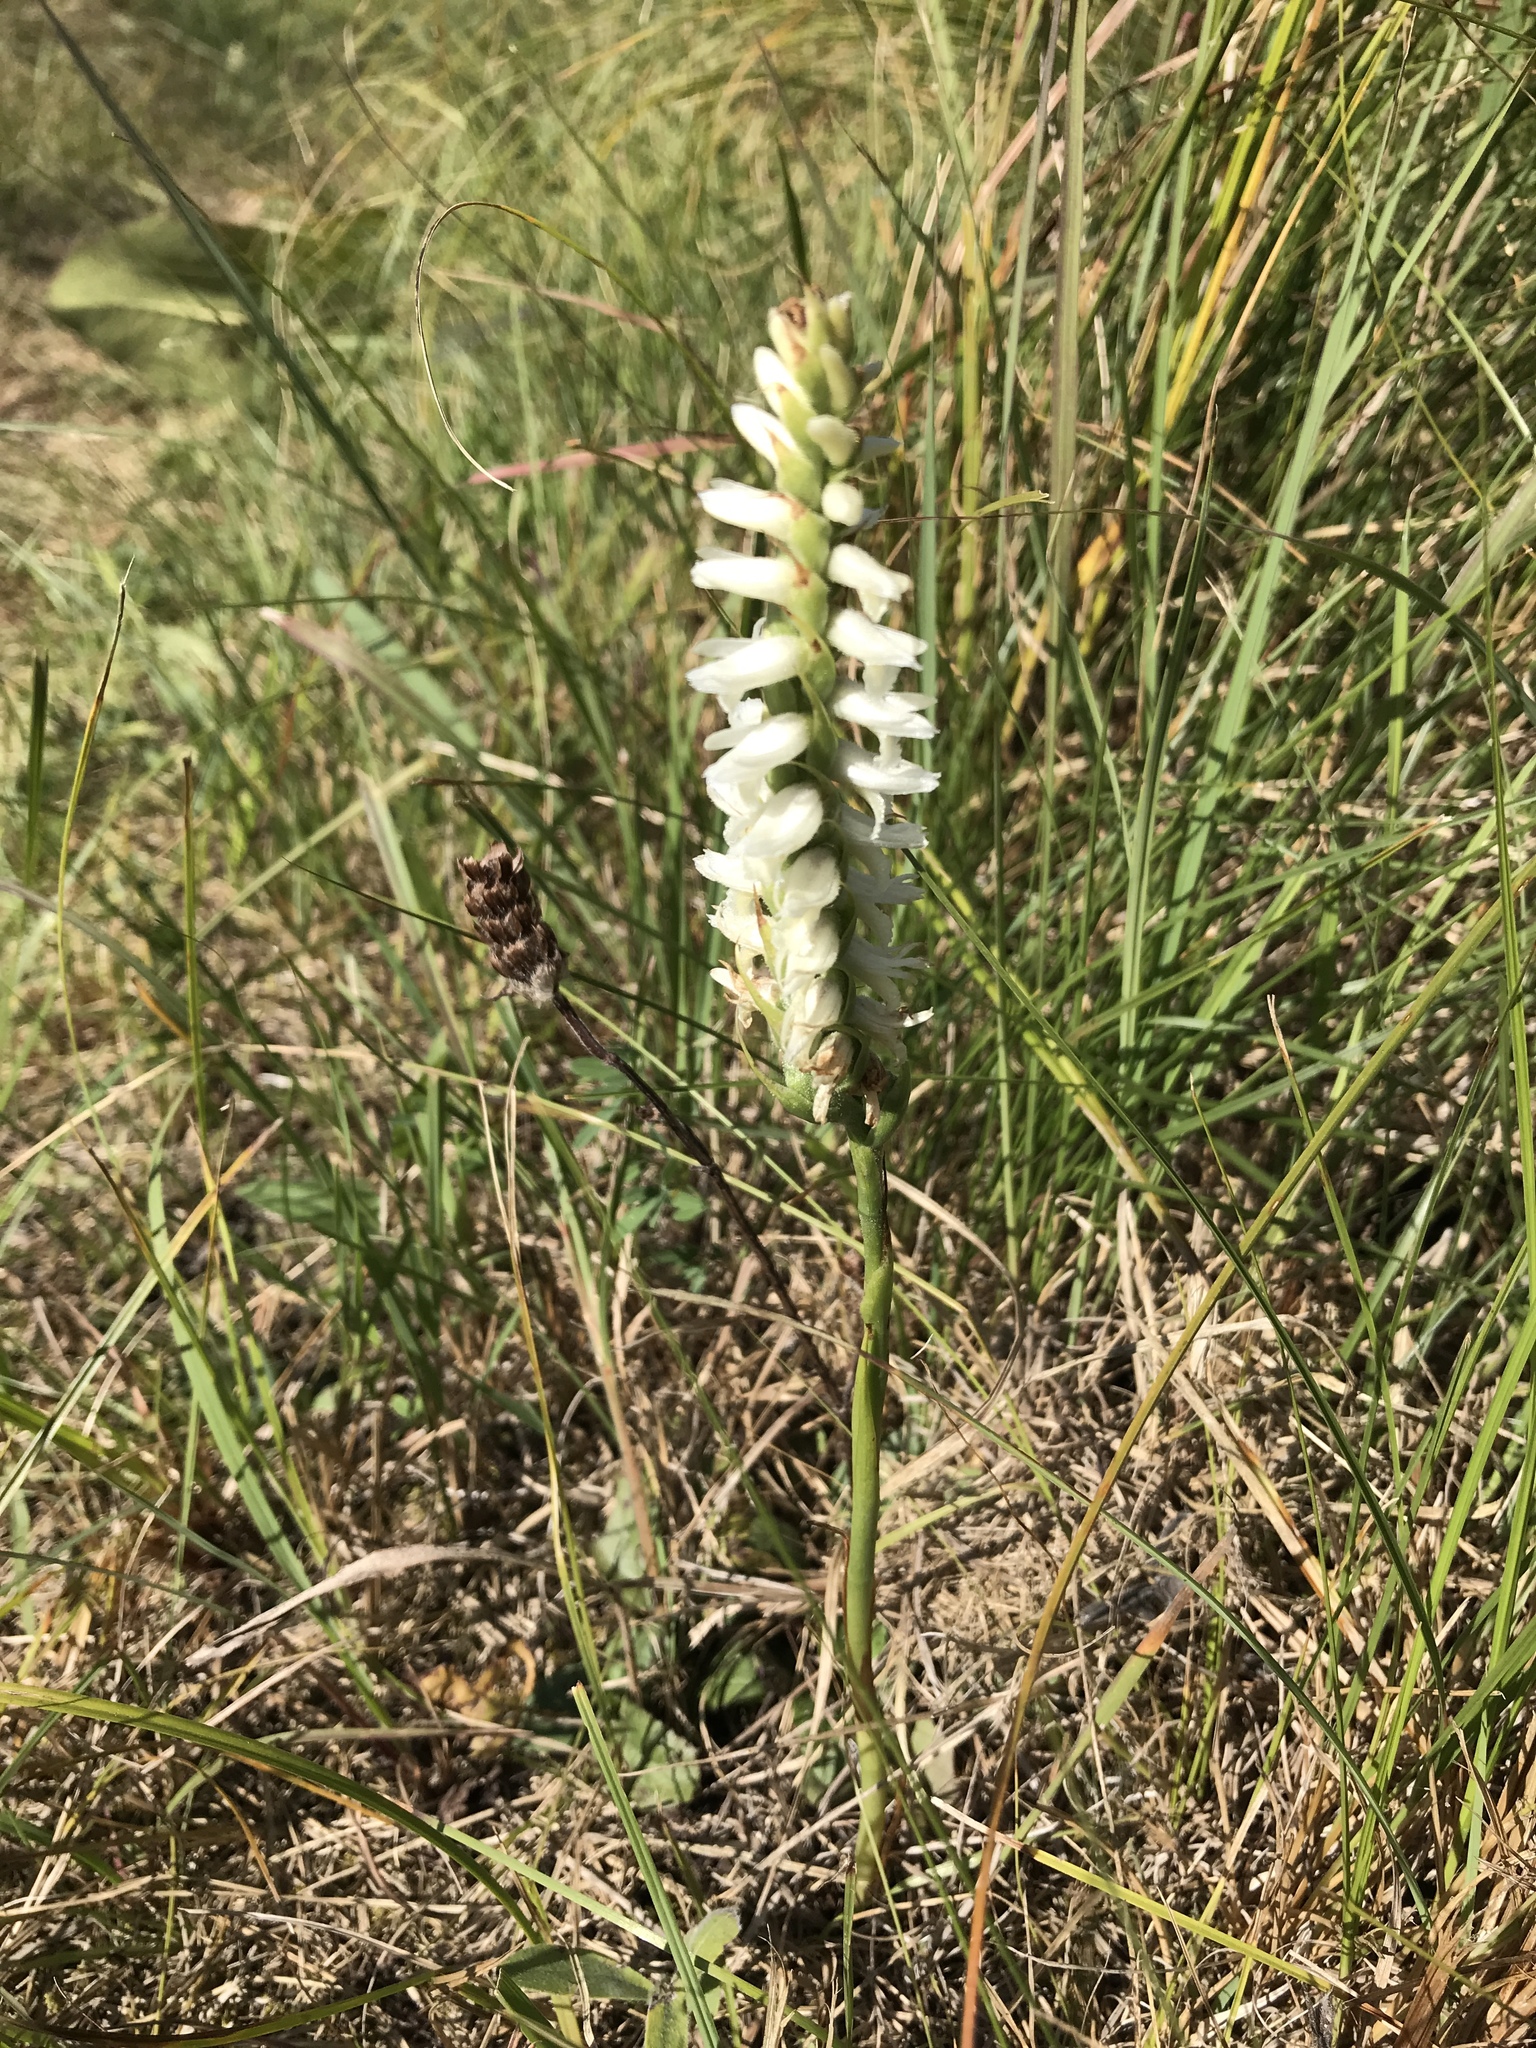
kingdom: Plantae
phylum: Tracheophyta
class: Liliopsida
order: Asparagales
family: Orchidaceae
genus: Spiranthes
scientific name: Spiranthes magnicamporum
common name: Great plains ladies'-tresses
